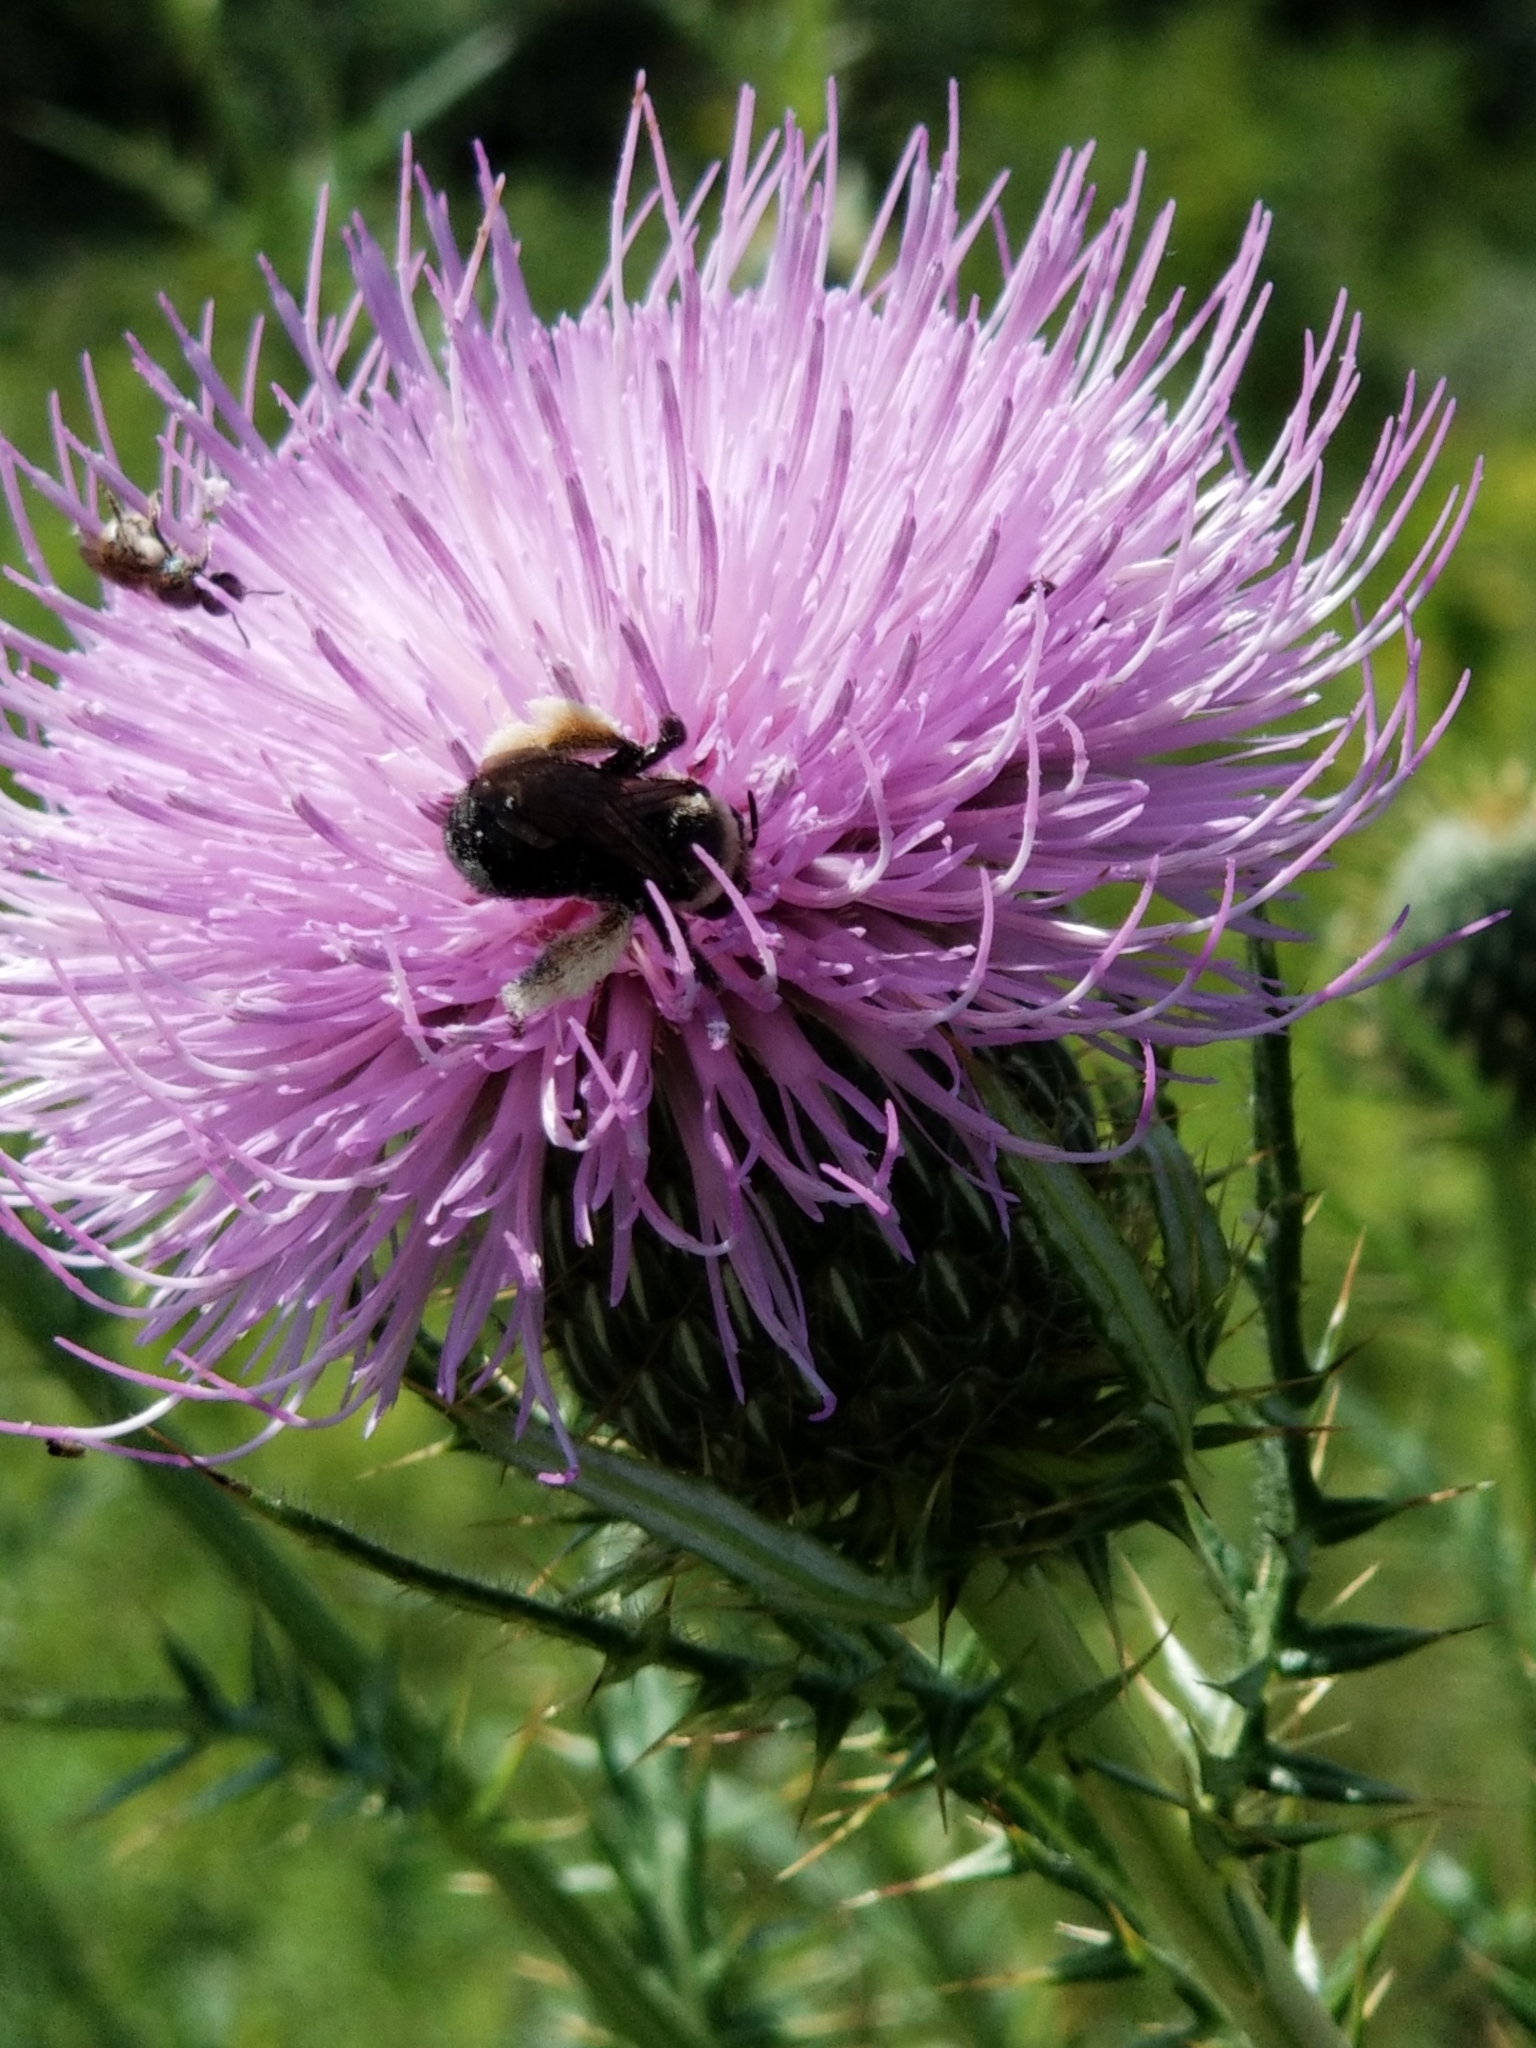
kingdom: Animalia
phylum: Arthropoda
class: Insecta
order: Hymenoptera
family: Apidae
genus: Melissodes
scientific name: Melissodes desponsus
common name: Thistle long-horned bee
